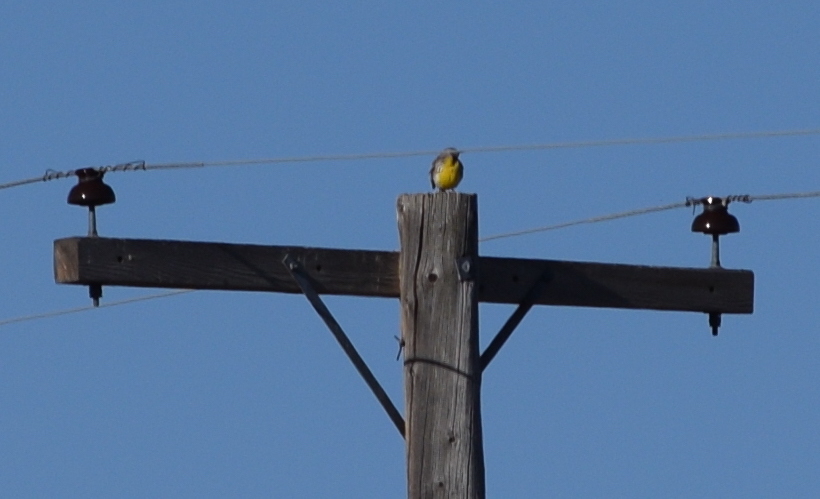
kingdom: Animalia
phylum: Chordata
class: Aves
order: Passeriformes
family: Icteridae
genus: Sturnella
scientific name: Sturnella neglecta
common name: Western meadowlark
